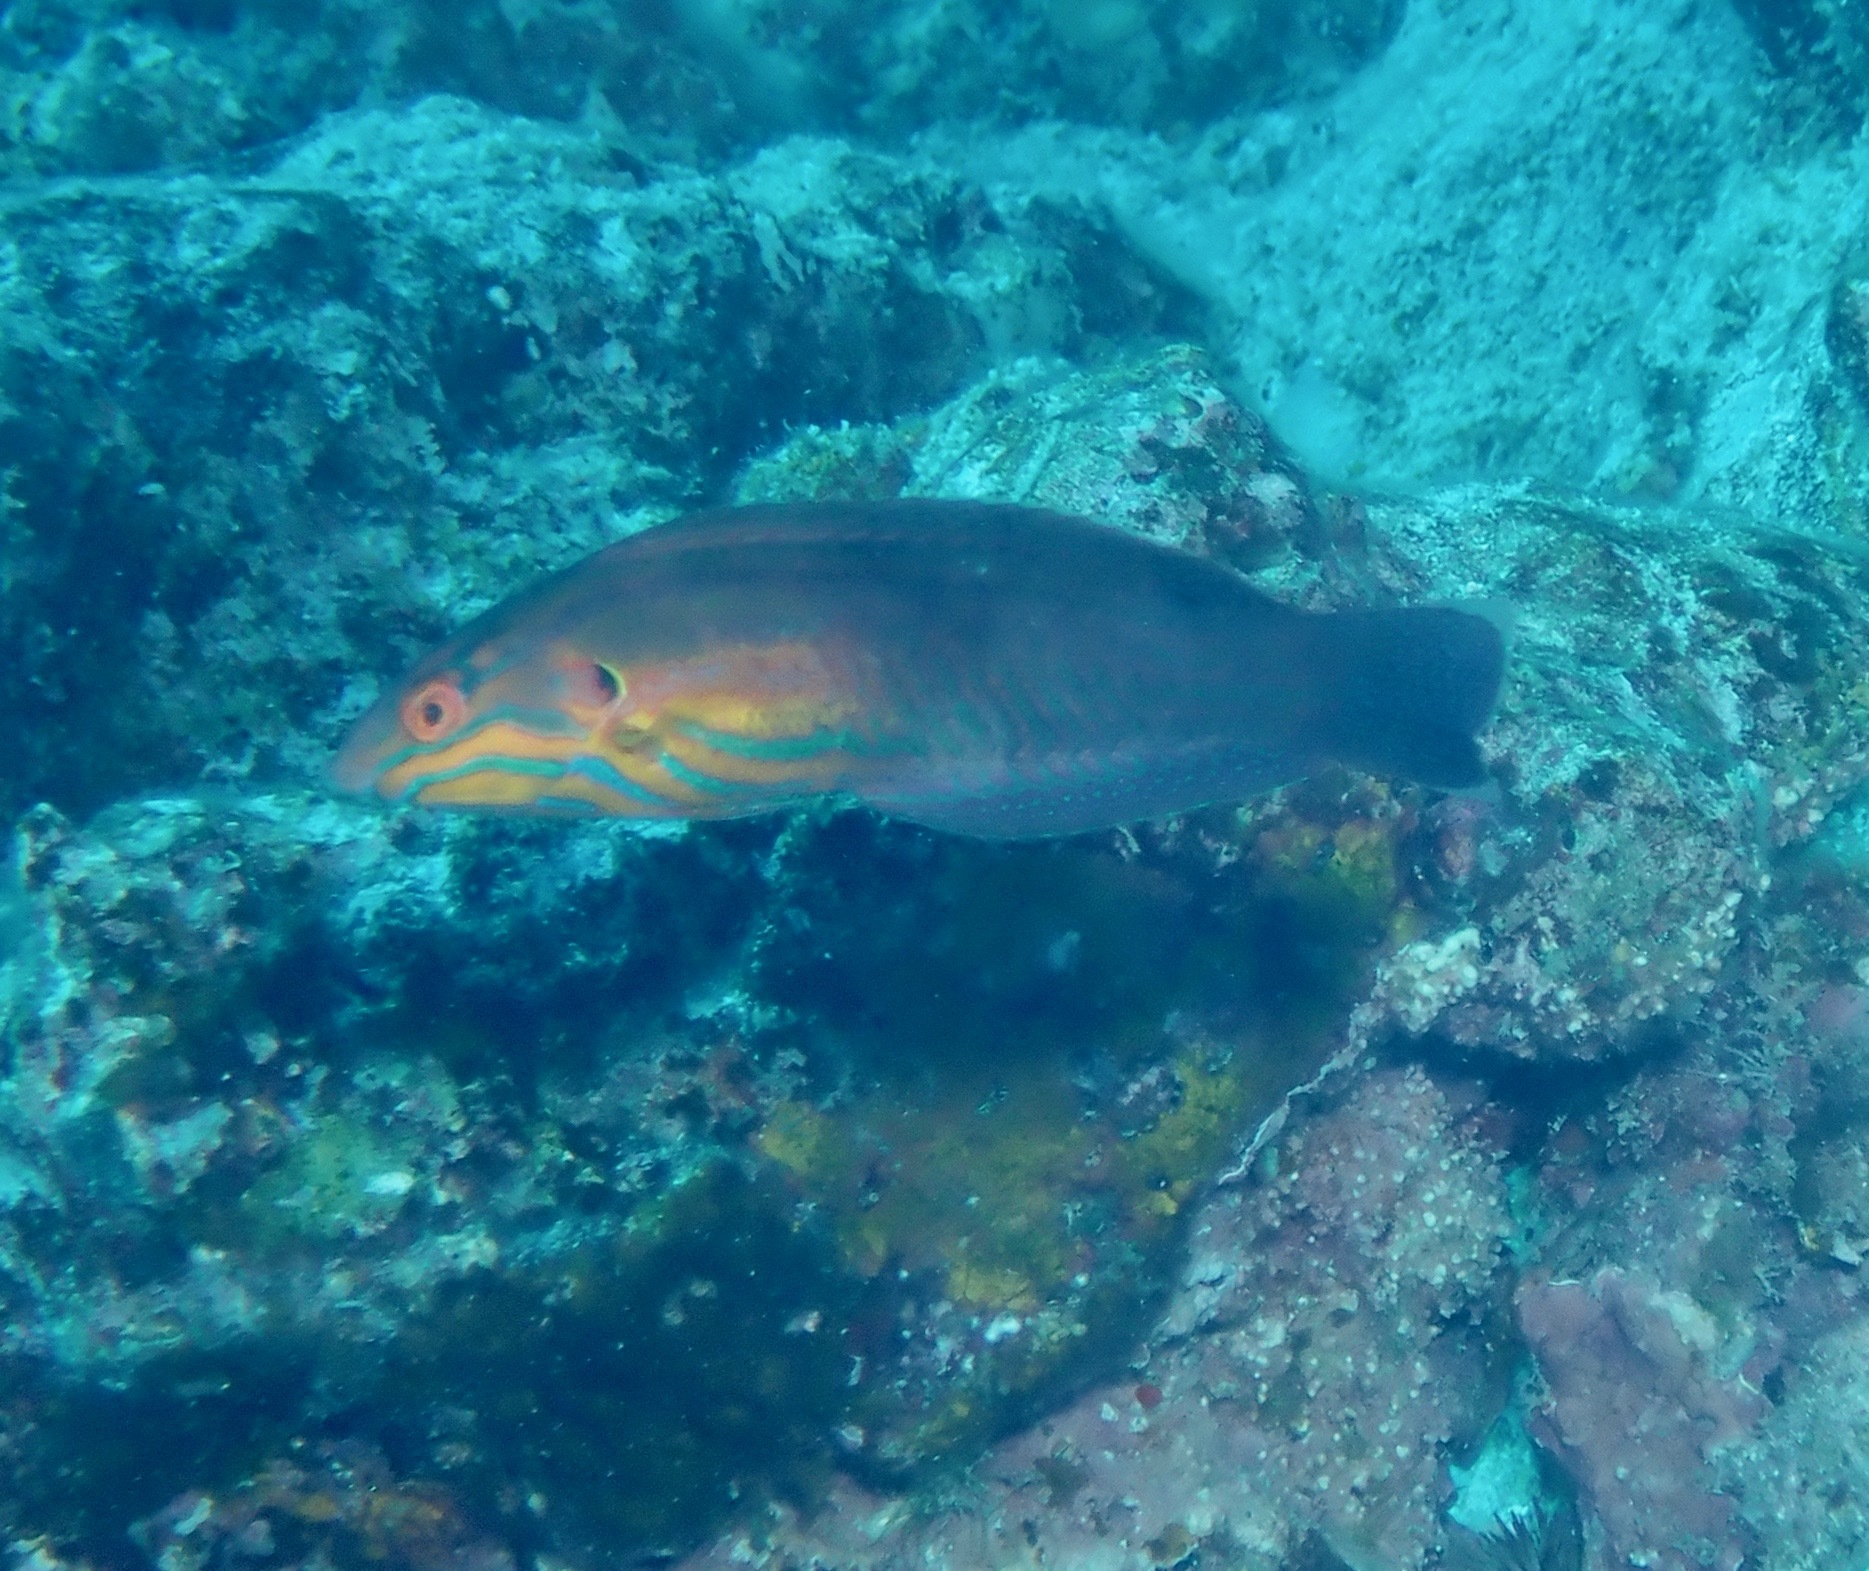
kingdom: Animalia
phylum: Chordata
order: Perciformes
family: Labridae
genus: Coris
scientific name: Coris venusta
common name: Elegant coris
